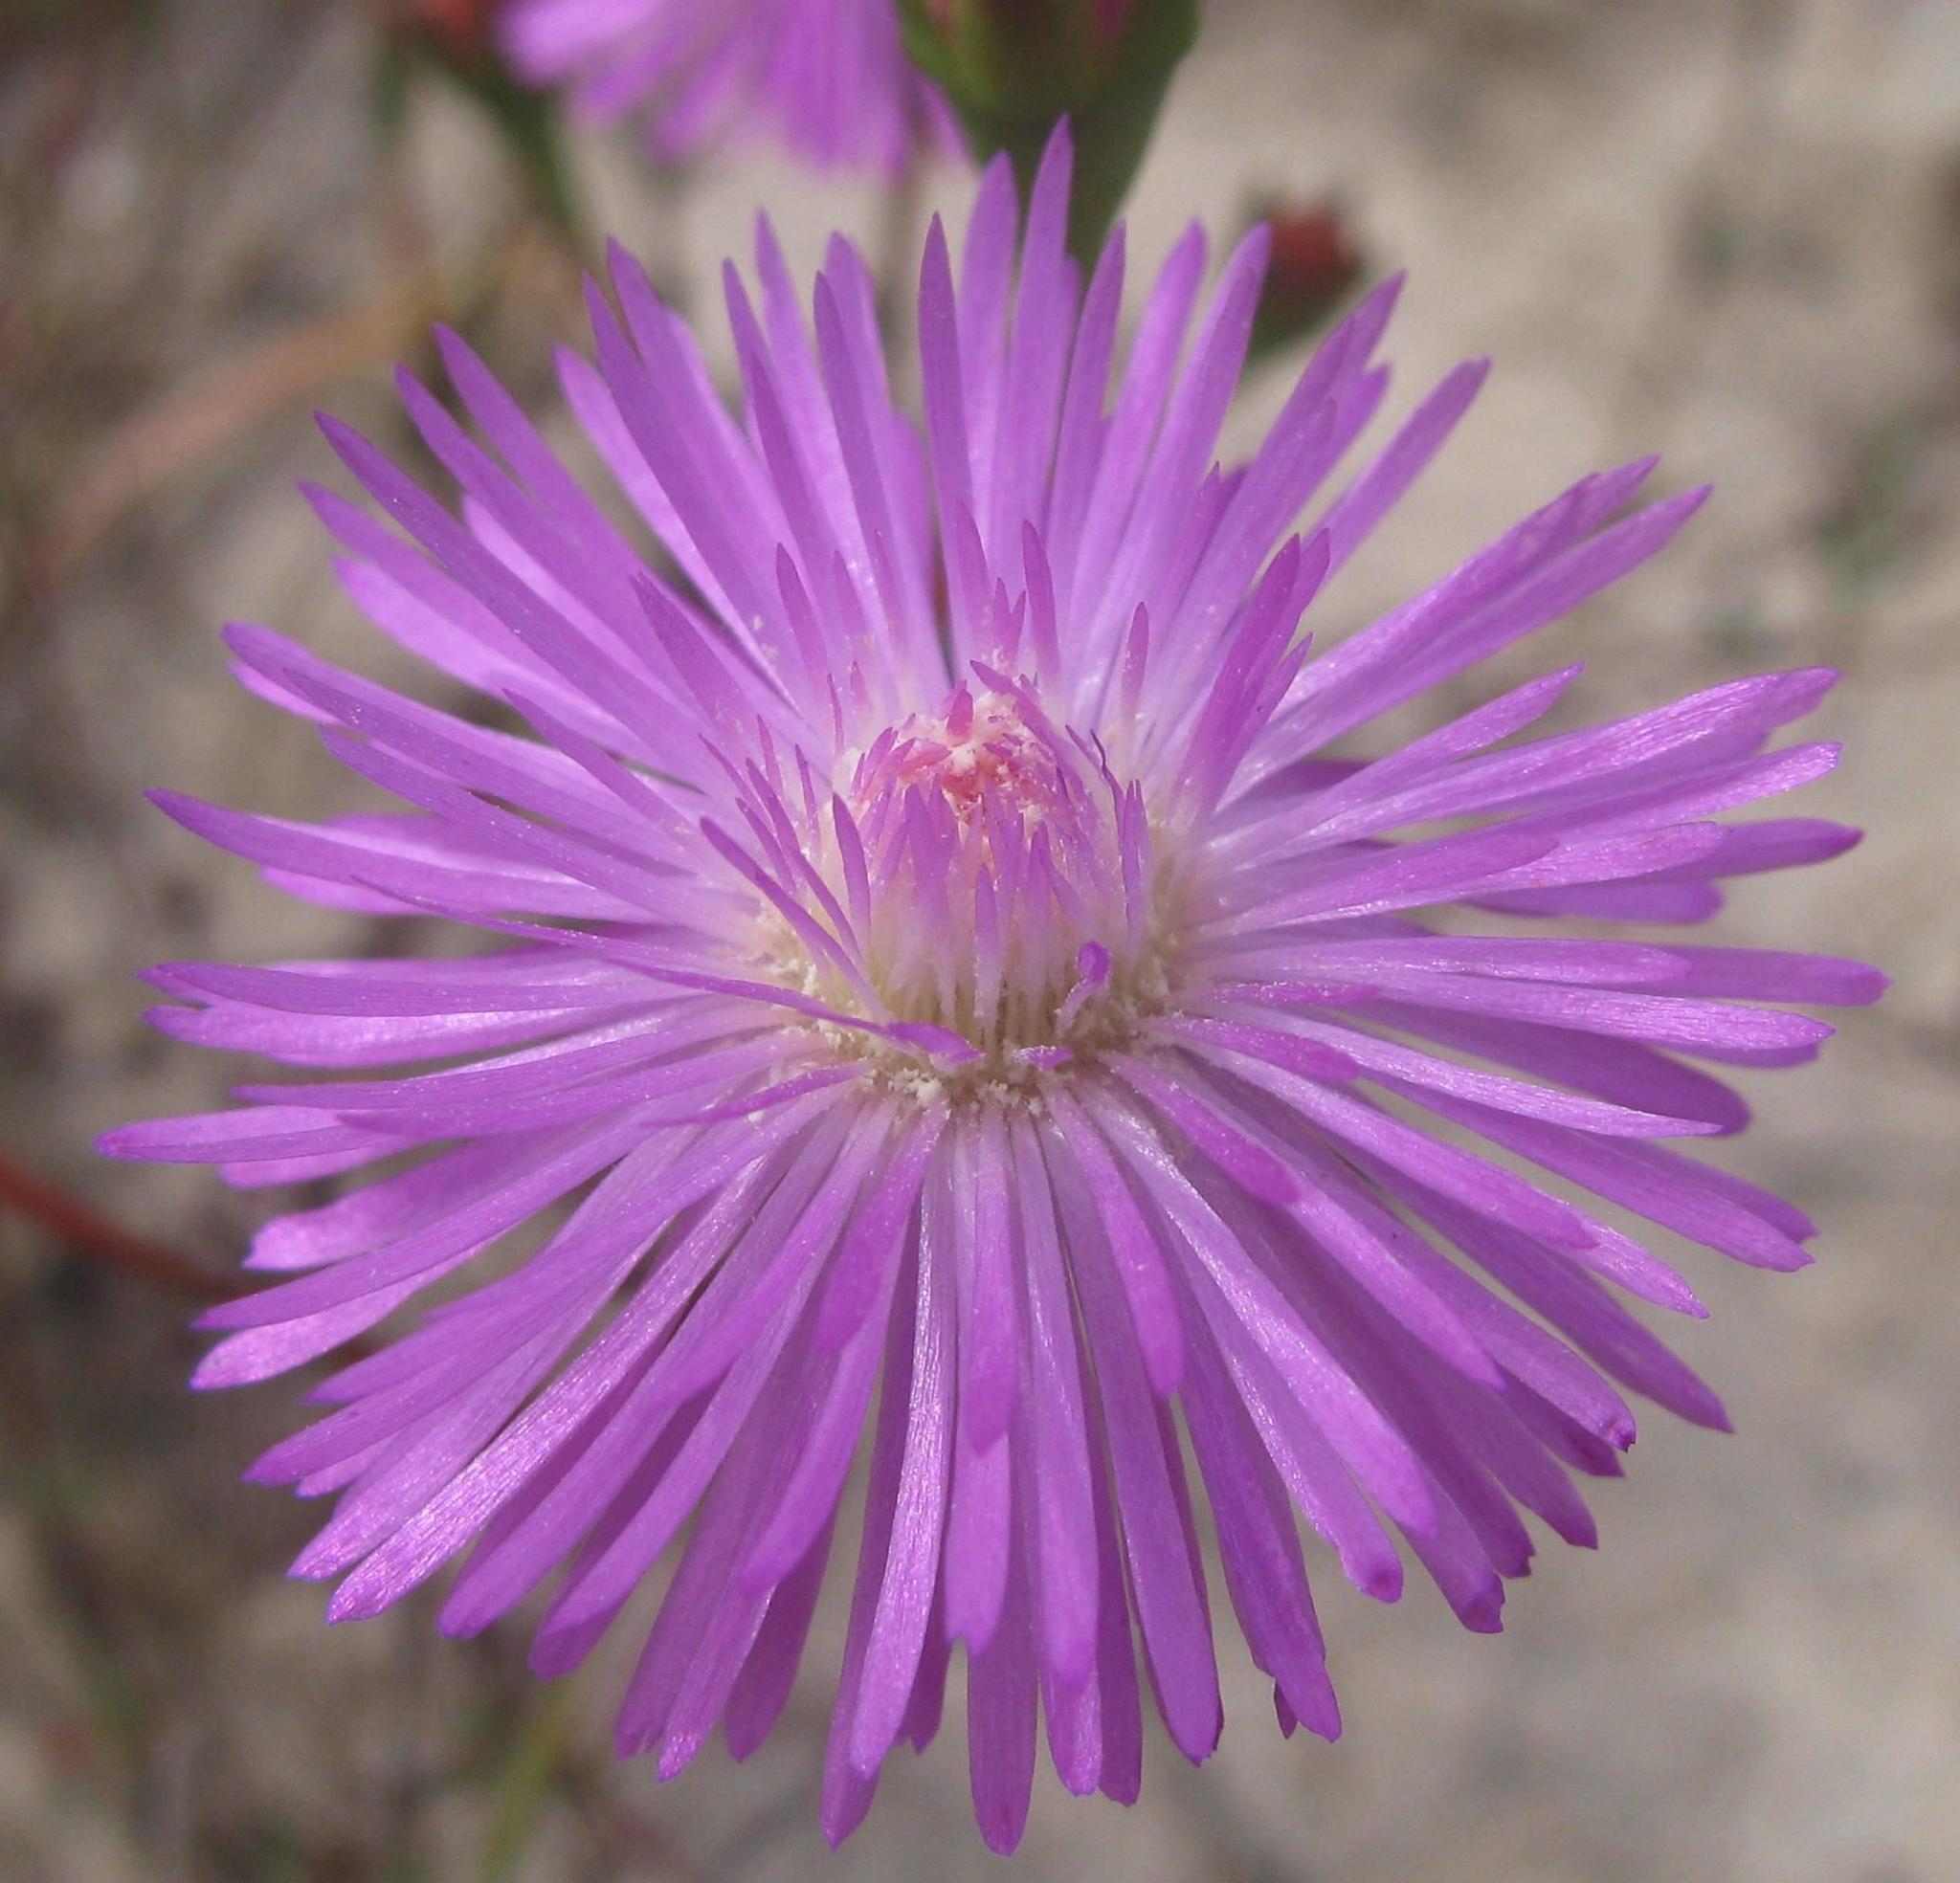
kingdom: Plantae
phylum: Tracheophyta
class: Magnoliopsida
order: Caryophyllales
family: Aizoaceae
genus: Lampranthus
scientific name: Lampranthus leipoldtii
